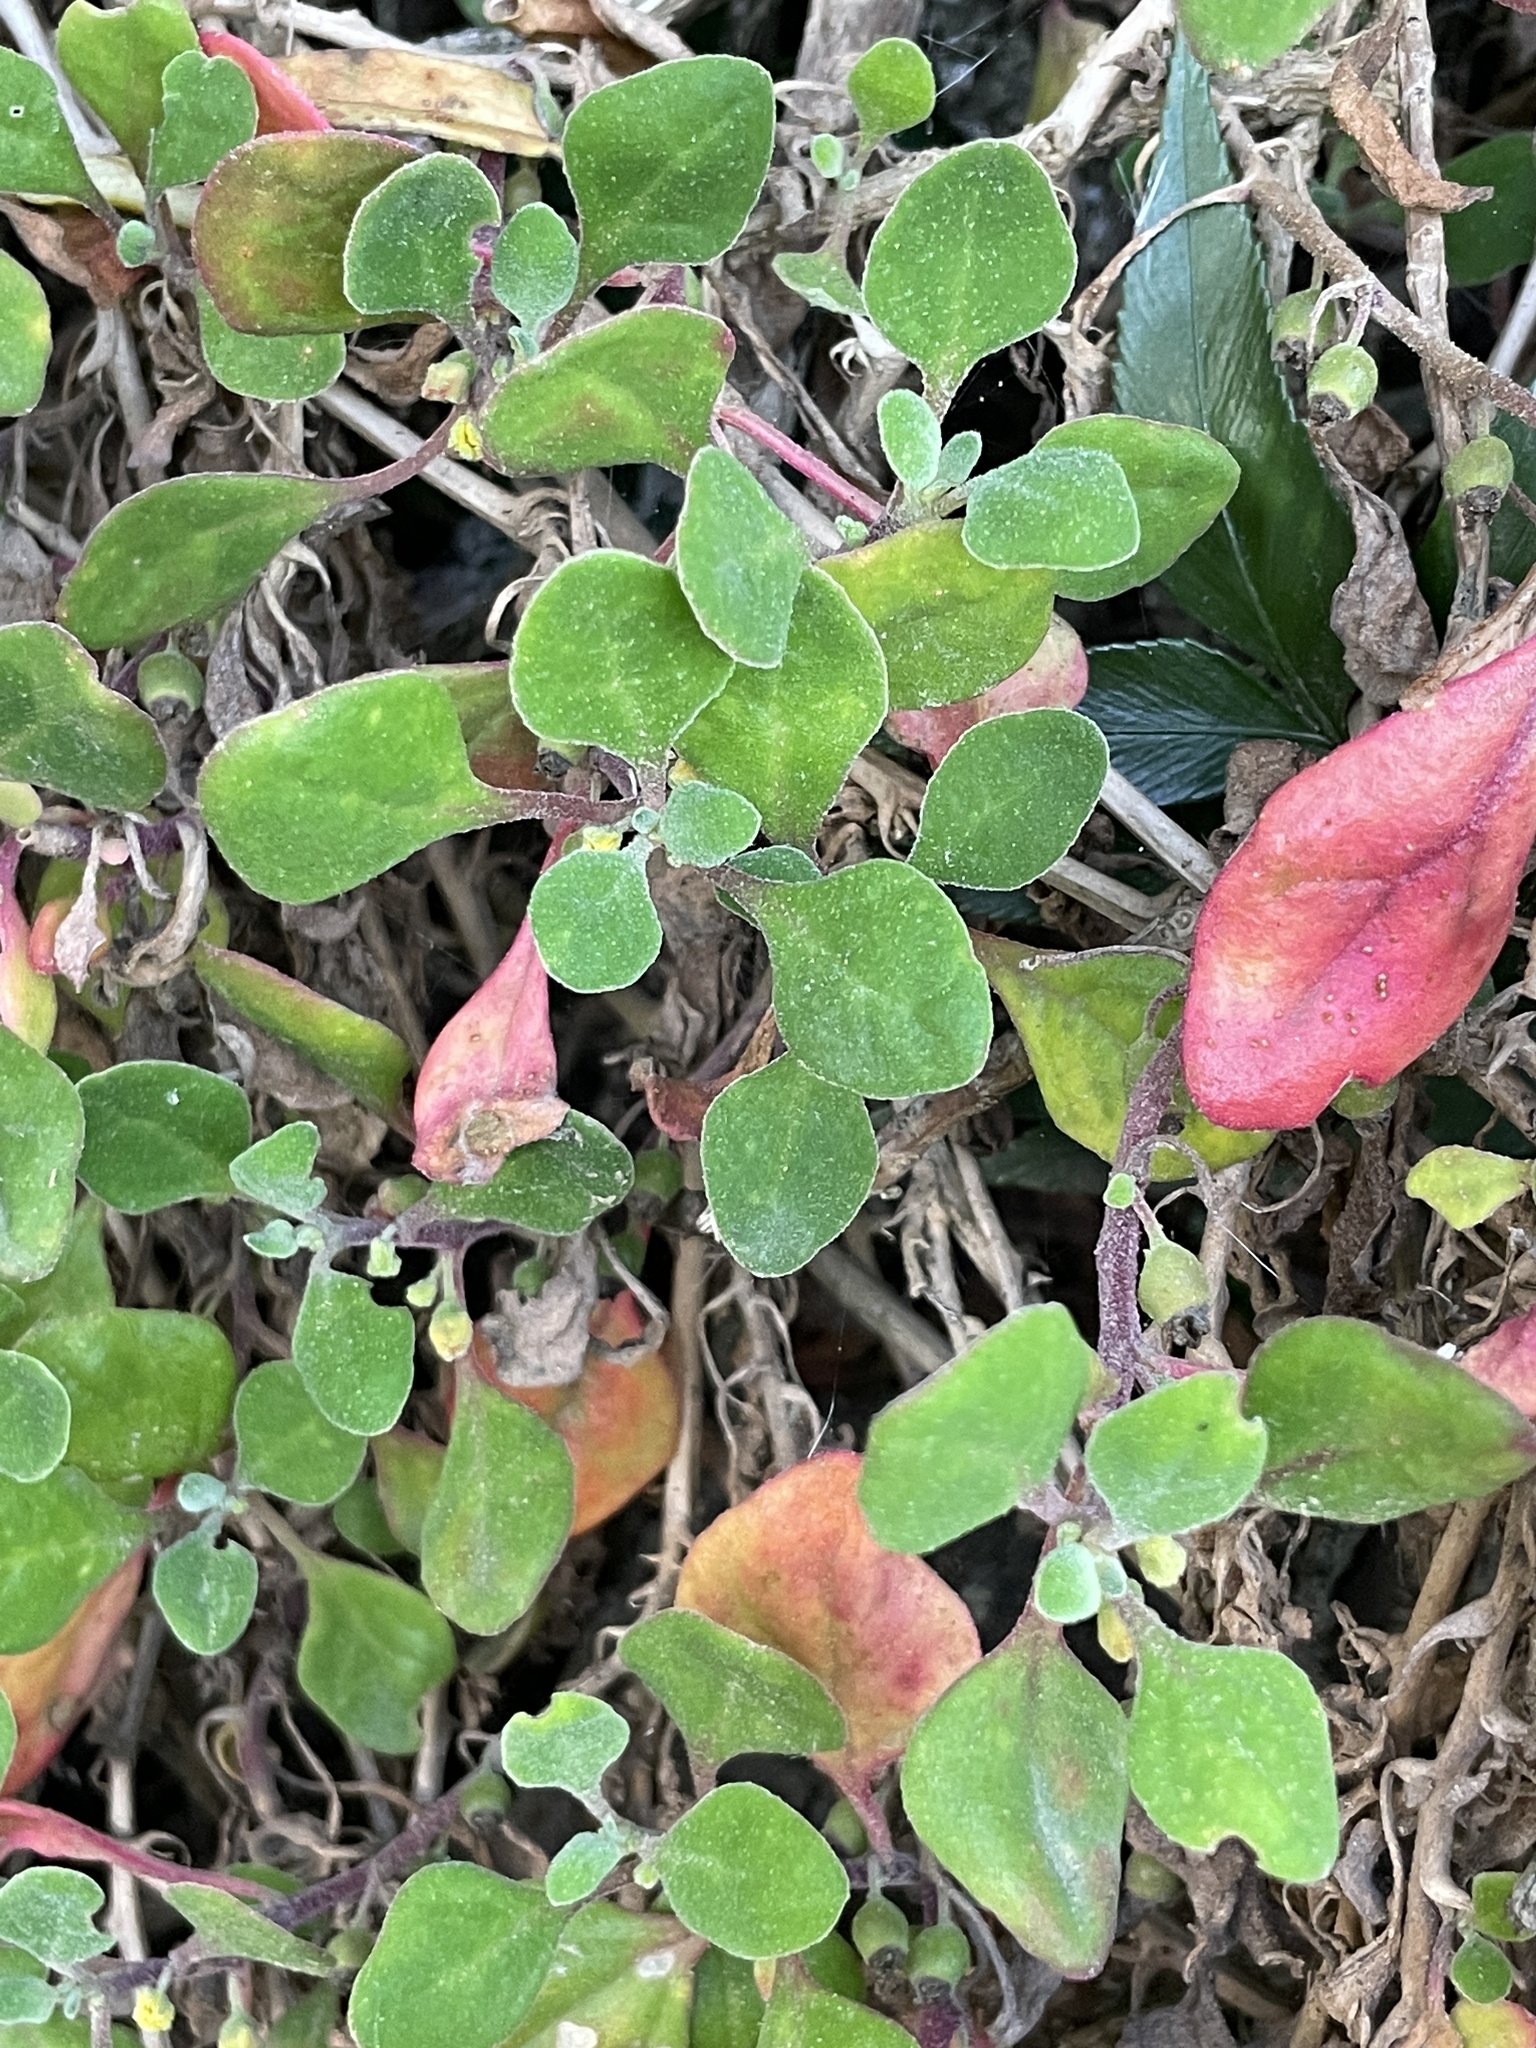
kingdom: Plantae
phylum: Tracheophyta
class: Magnoliopsida
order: Caryophyllales
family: Aizoaceae
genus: Tetragonia
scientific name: Tetragonia implexicoma
